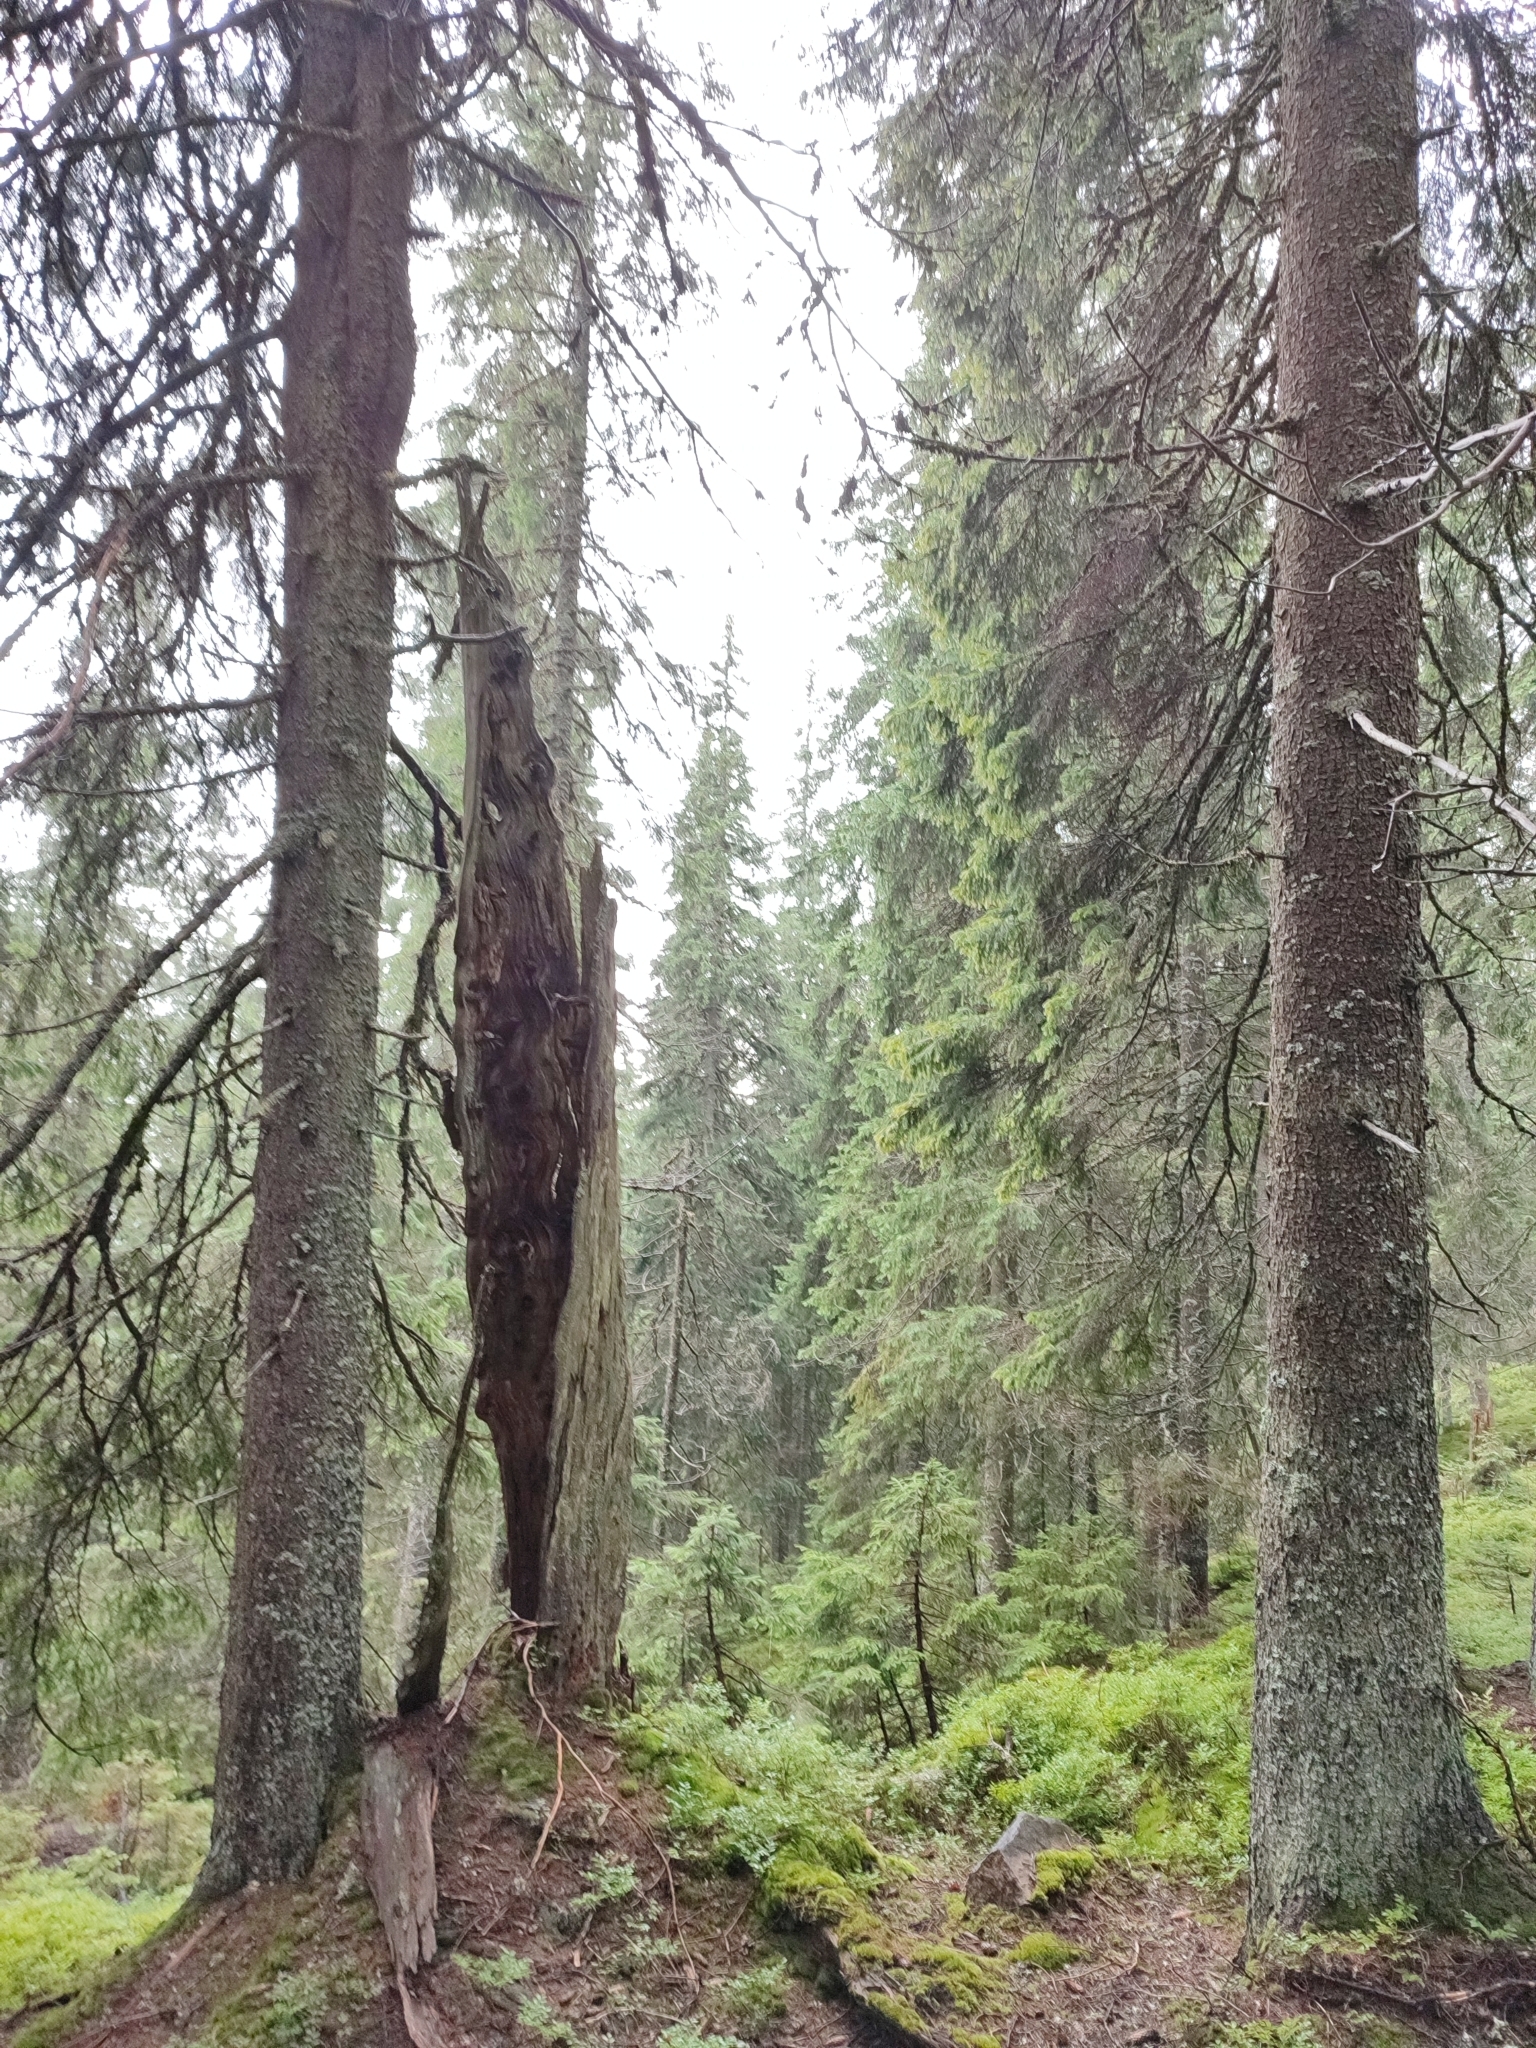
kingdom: Plantae
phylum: Tracheophyta
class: Pinopsida
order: Pinales
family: Pinaceae
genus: Picea
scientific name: Picea abies
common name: Norway spruce
